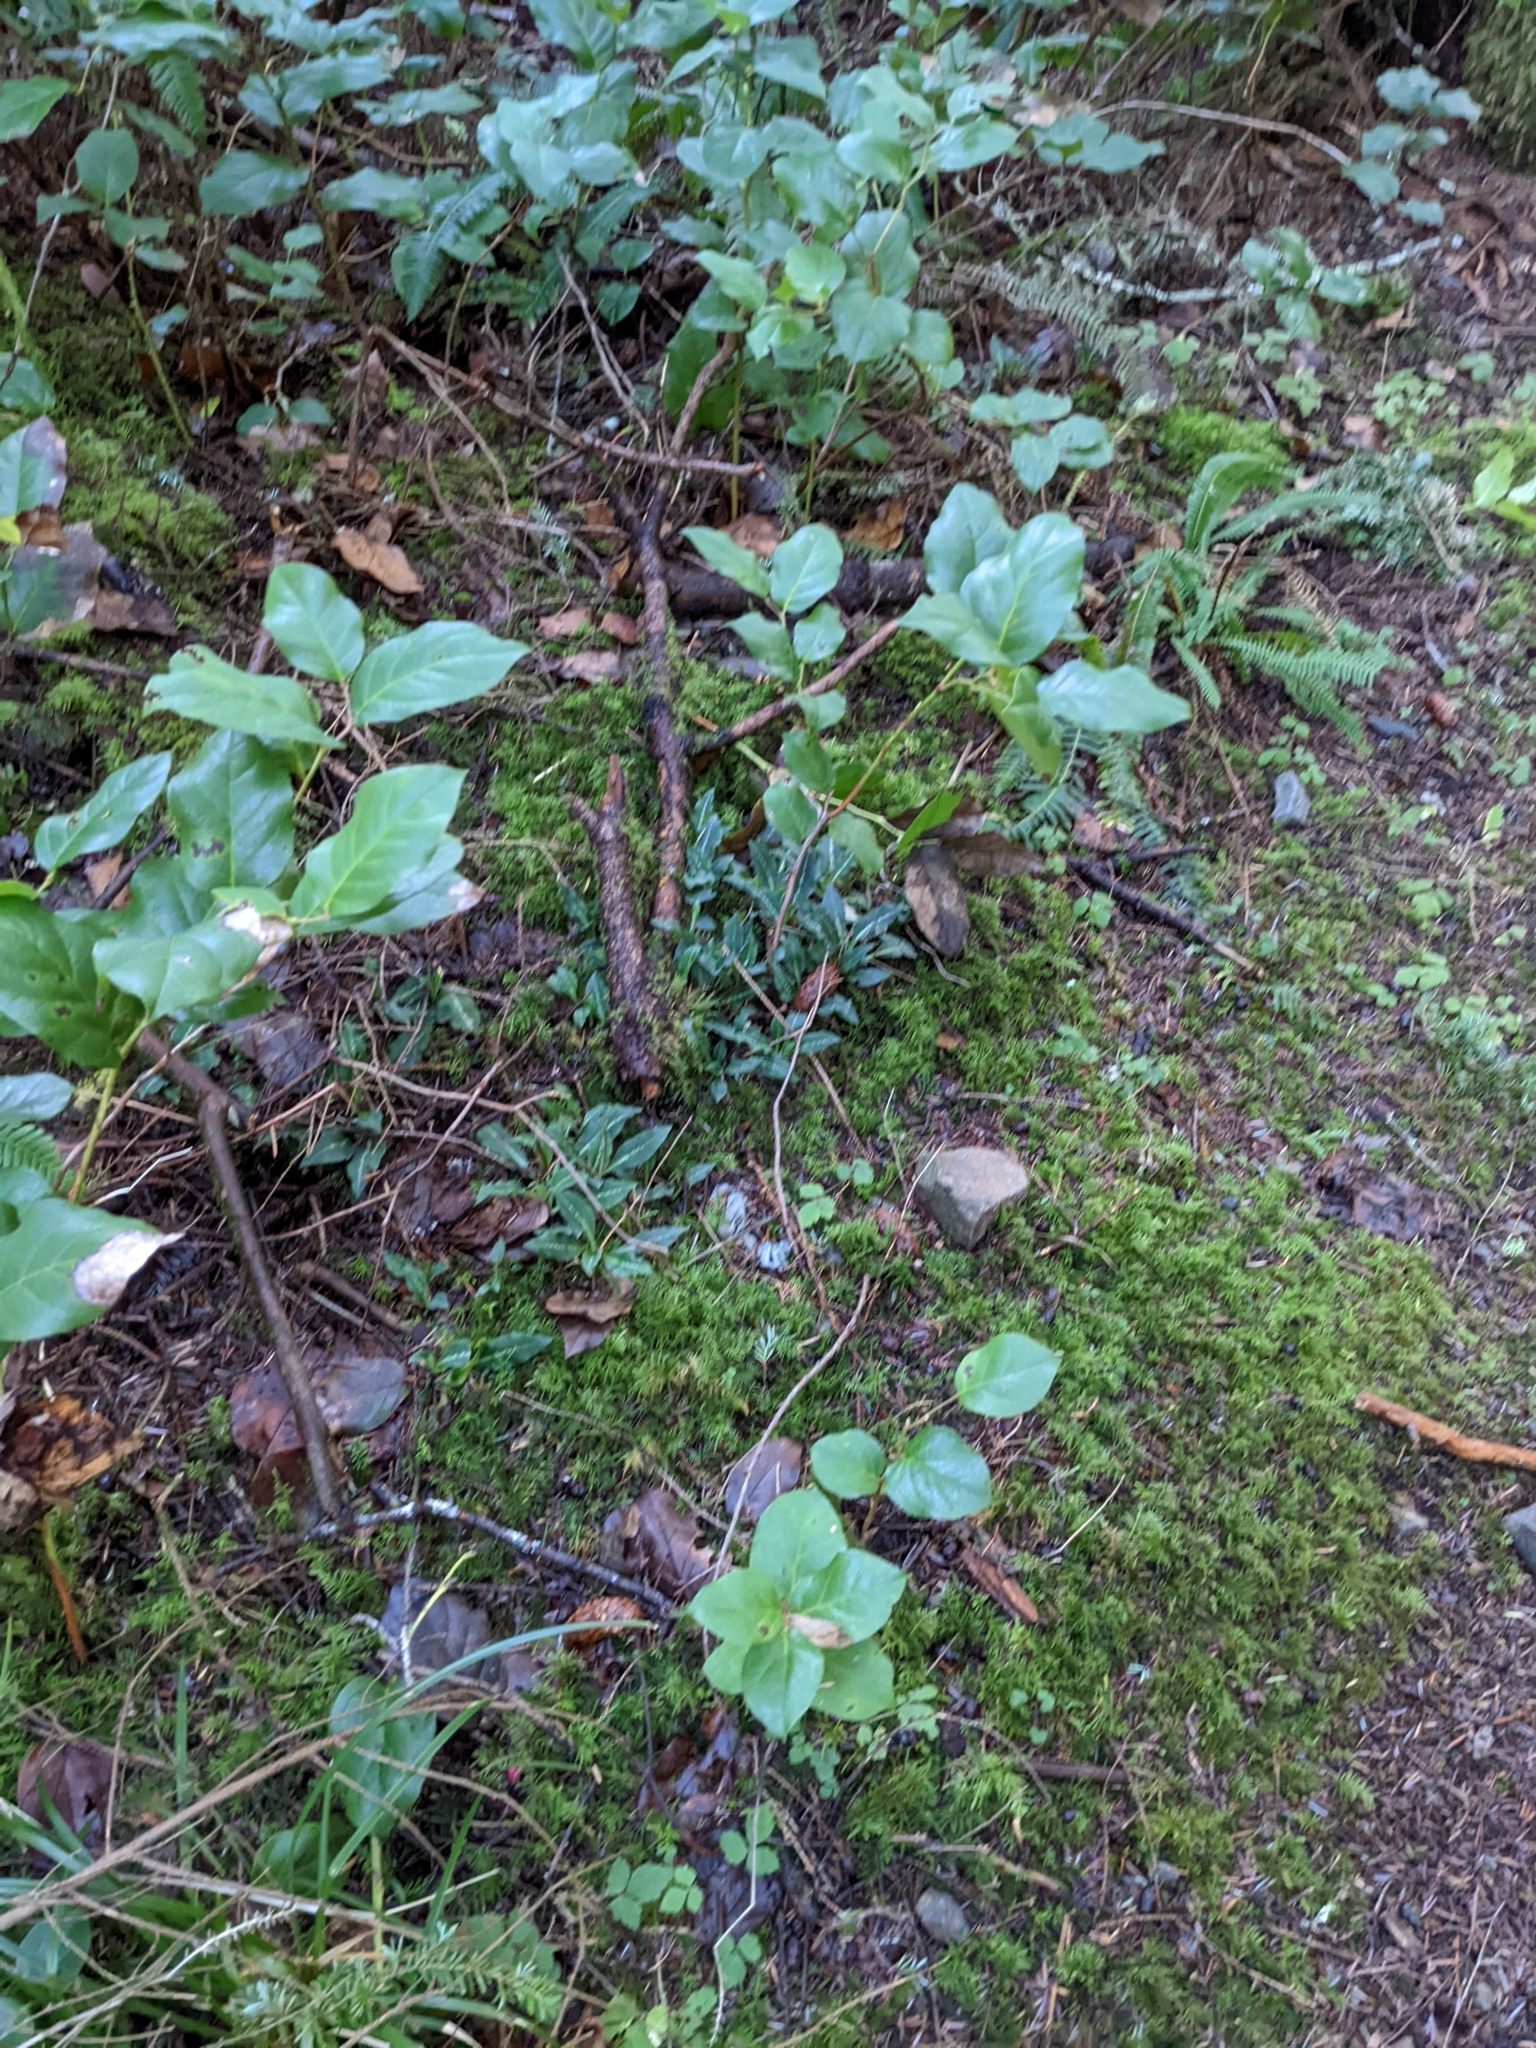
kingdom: Plantae
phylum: Tracheophyta
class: Liliopsida
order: Asparagales
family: Orchidaceae
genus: Goodyera
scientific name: Goodyera oblongifolia
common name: Giant rattlesnake-plantain
